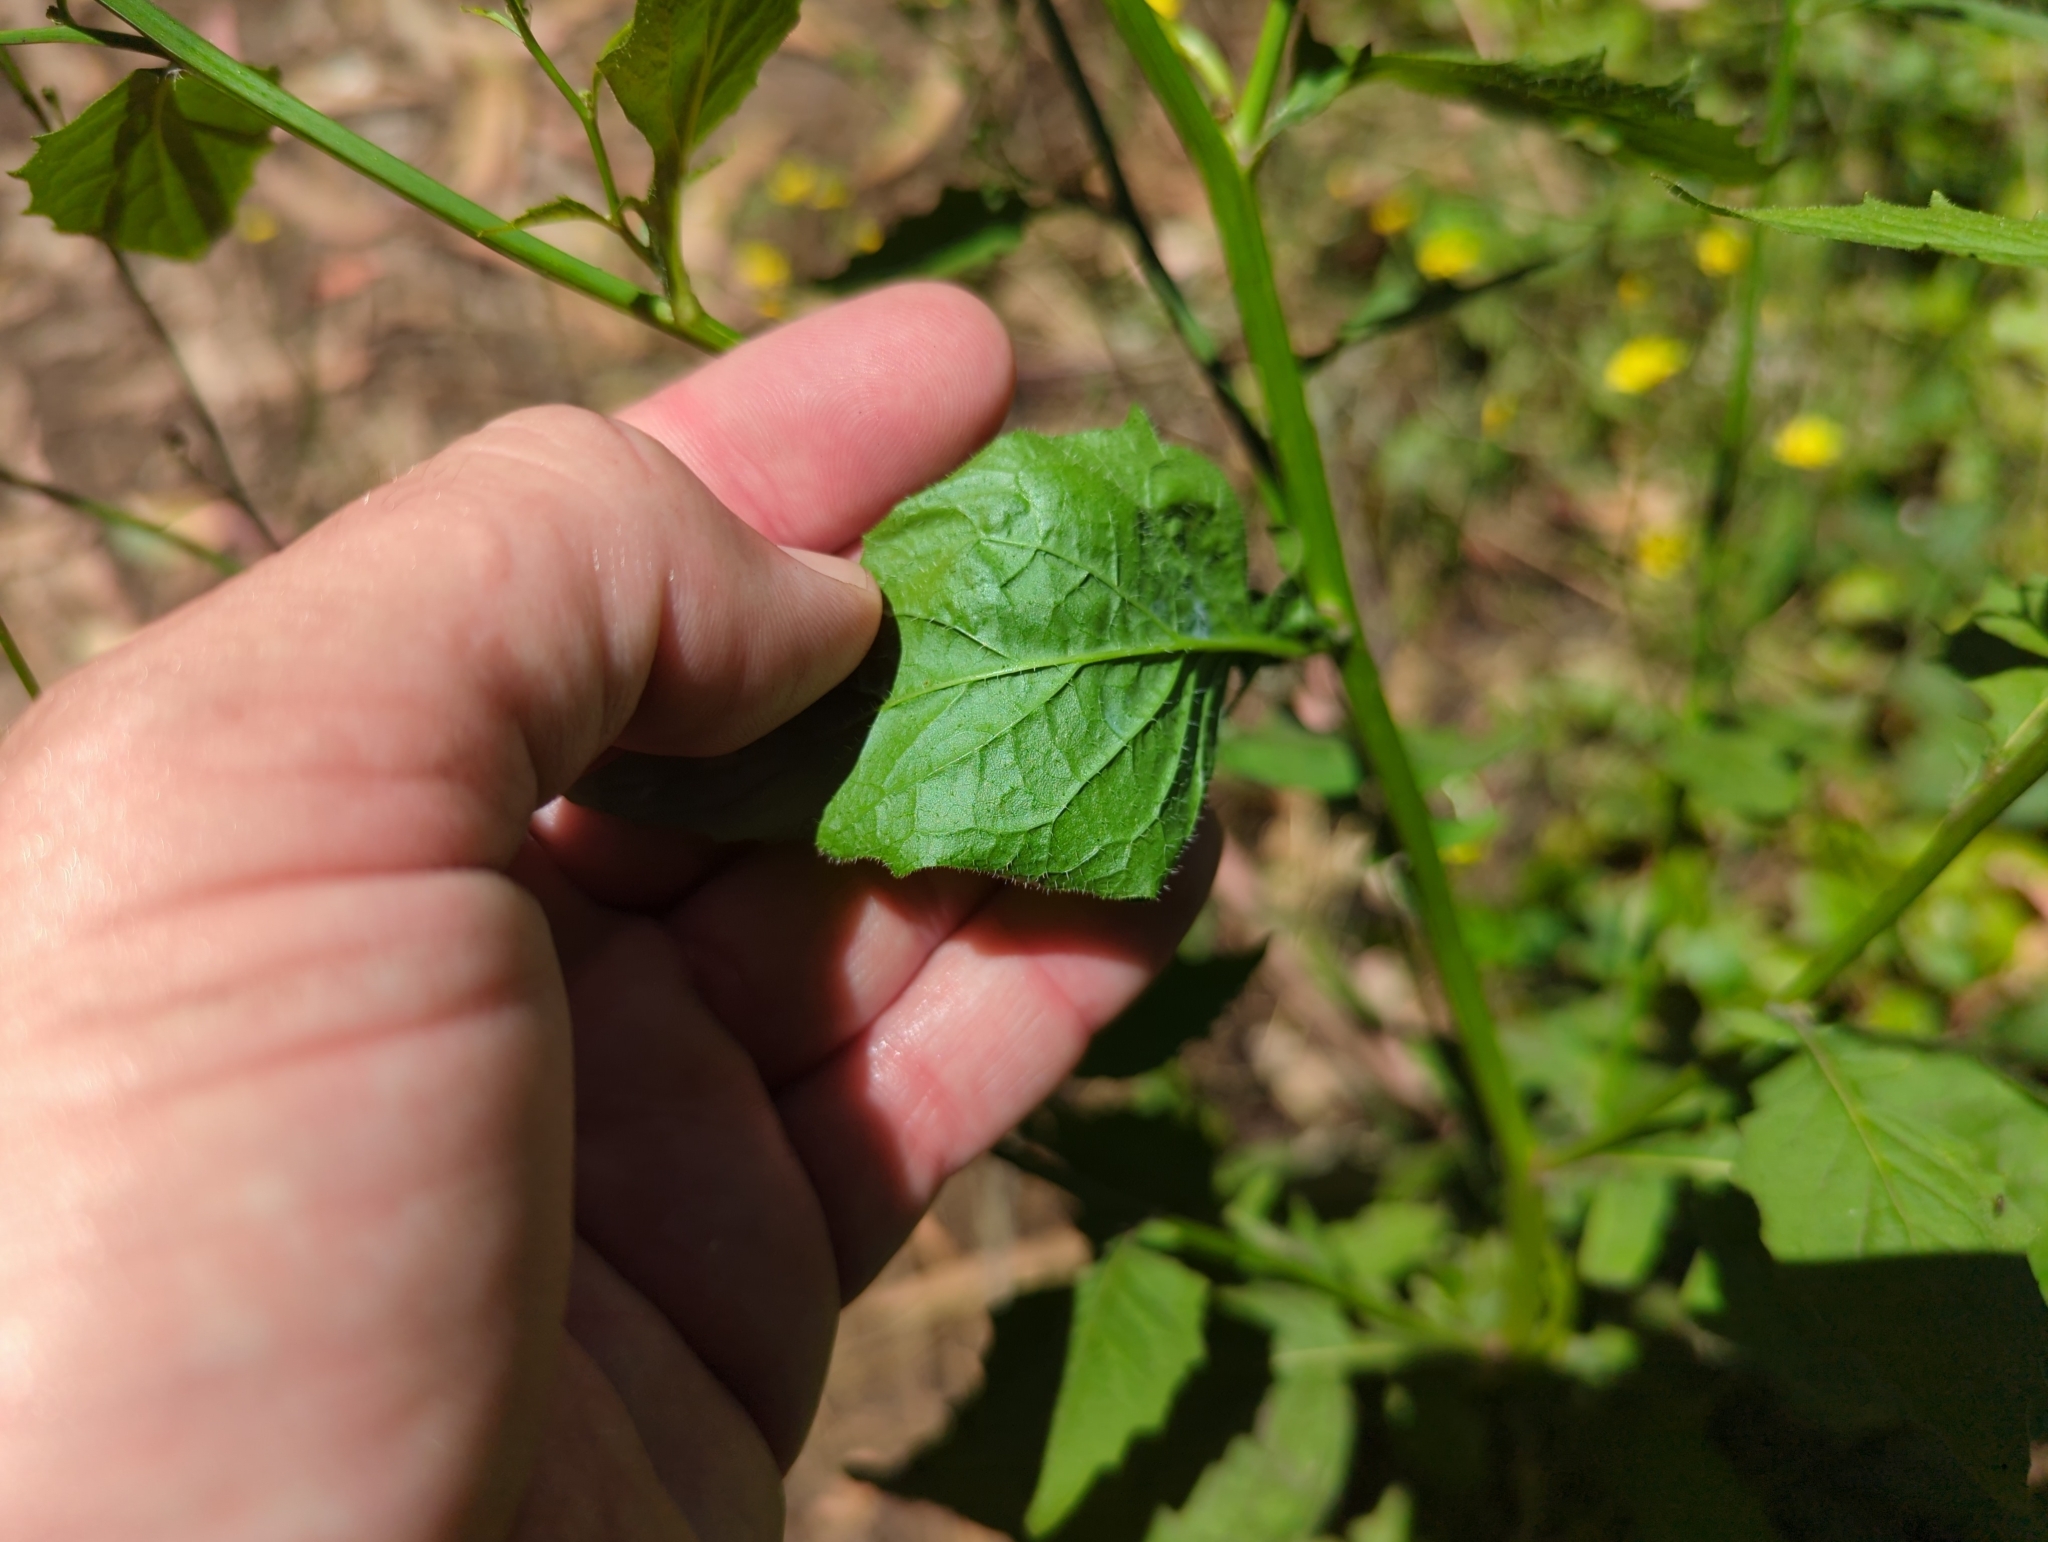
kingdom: Plantae
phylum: Tracheophyta
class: Magnoliopsida
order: Asterales
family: Asteraceae
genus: Lapsana
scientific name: Lapsana communis
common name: Nipplewort
